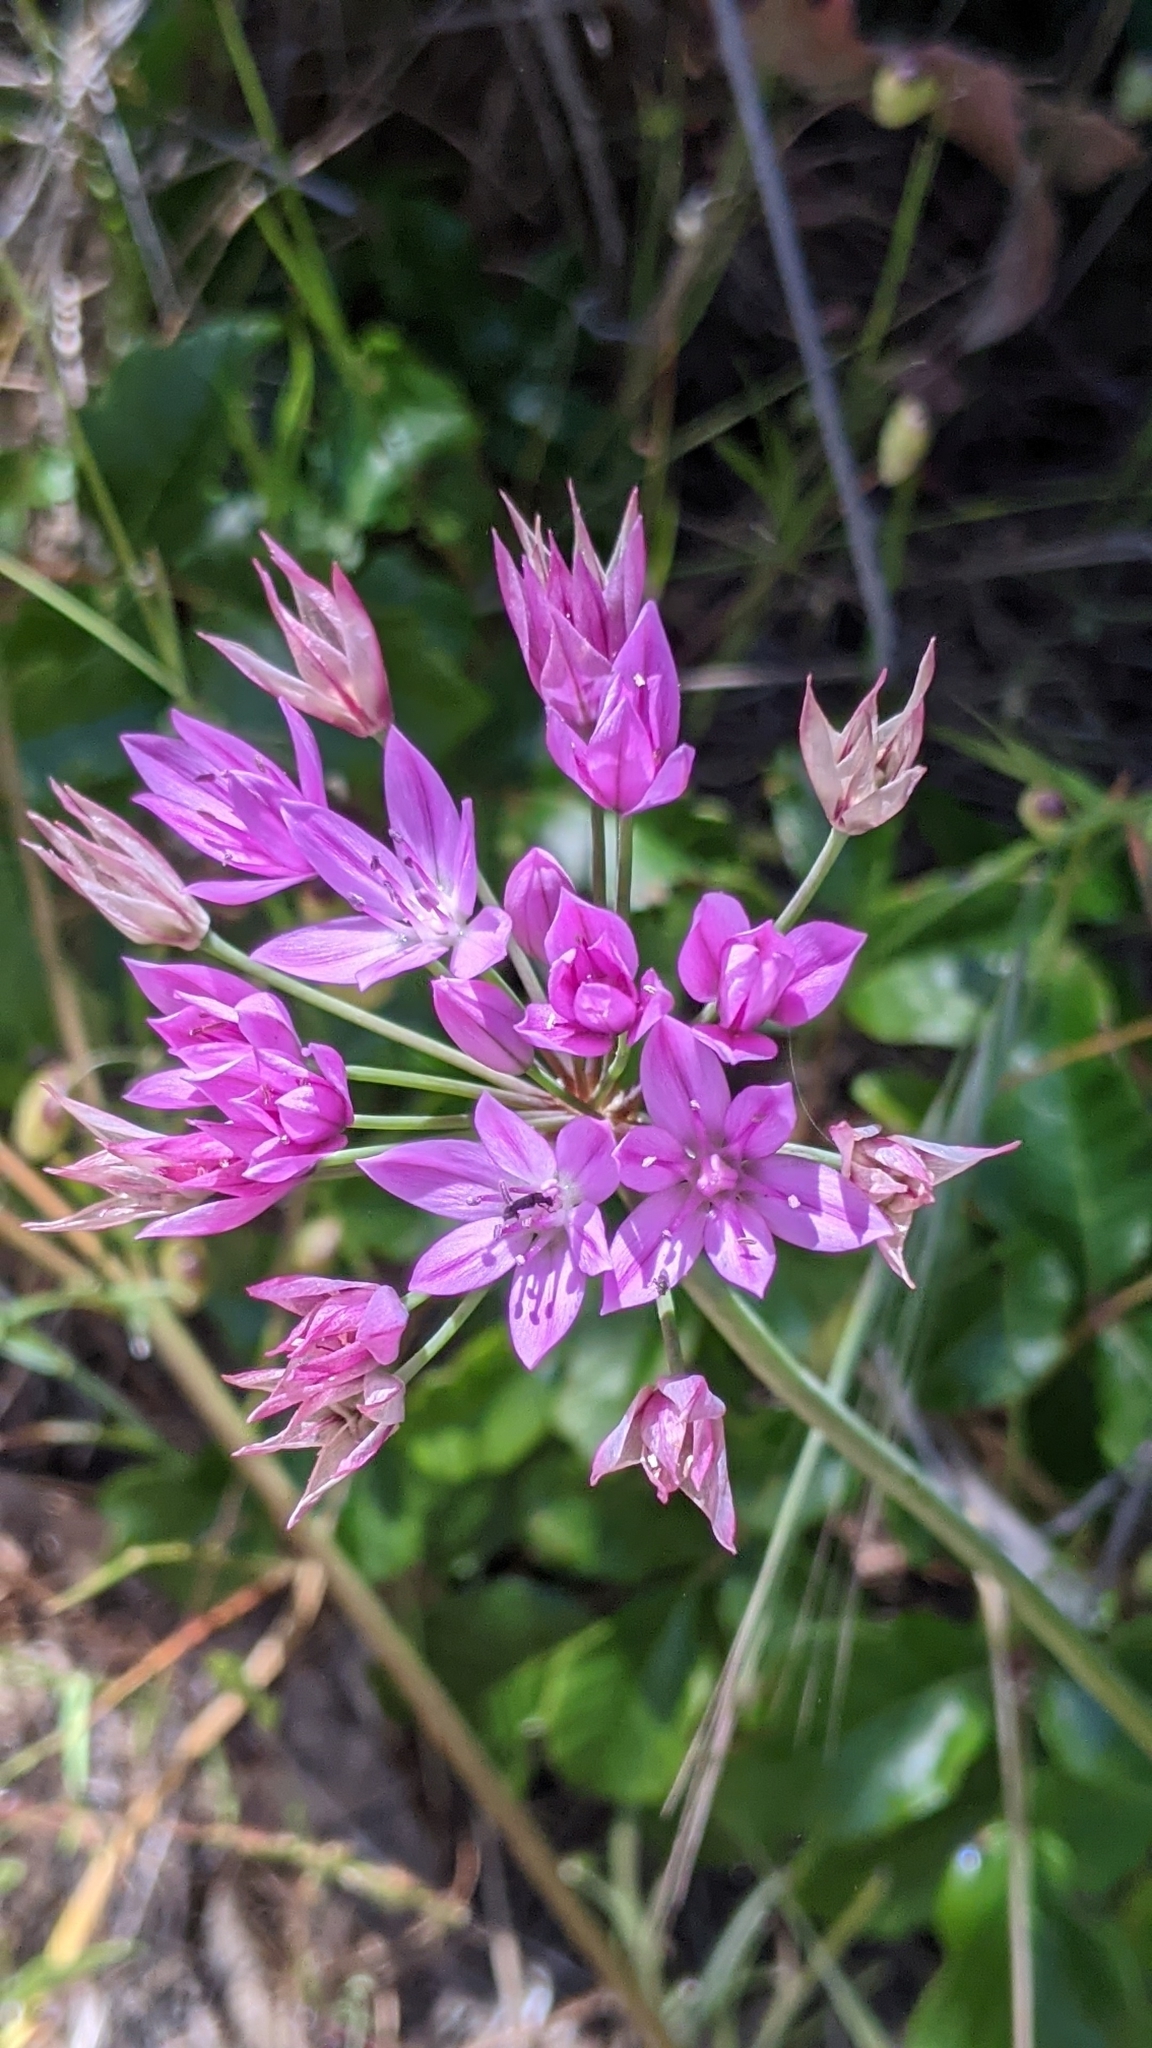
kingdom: Plantae
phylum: Tracheophyta
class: Liliopsida
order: Asparagales
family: Amaryllidaceae
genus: Allium
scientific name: Allium unifolium
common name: American garlic
